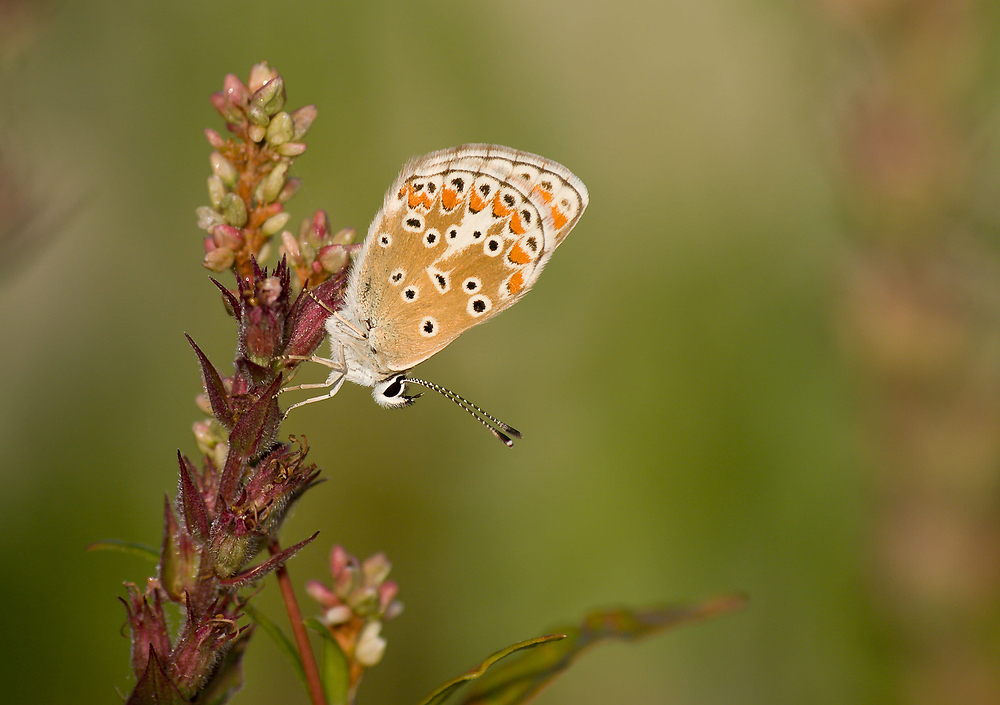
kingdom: Animalia
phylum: Arthropoda
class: Insecta
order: Lepidoptera
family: Lycaenidae
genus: Aricia
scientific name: Aricia agestis
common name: Brown argus
